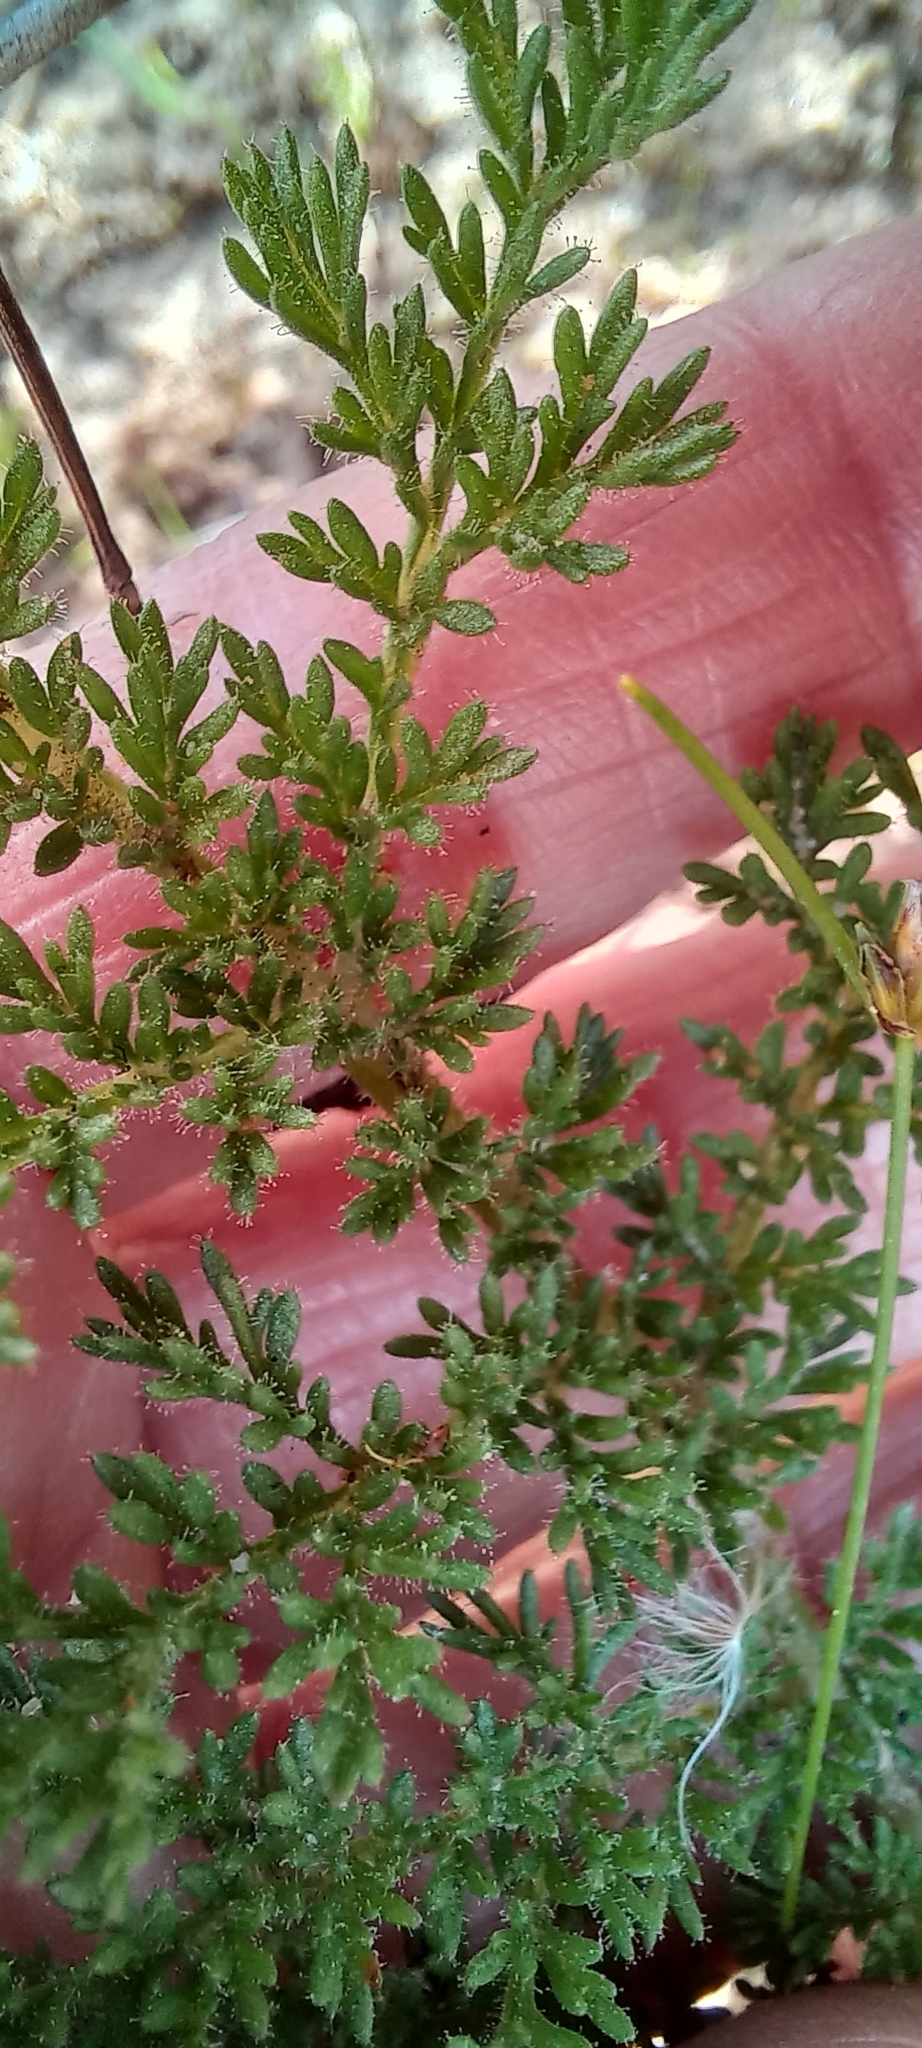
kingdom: Plantae
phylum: Tracheophyta
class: Magnoliopsida
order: Geraniales
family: Geraniaceae
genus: Pelargonium
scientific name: Pelargonium triste
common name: Night-scent pelargonium
